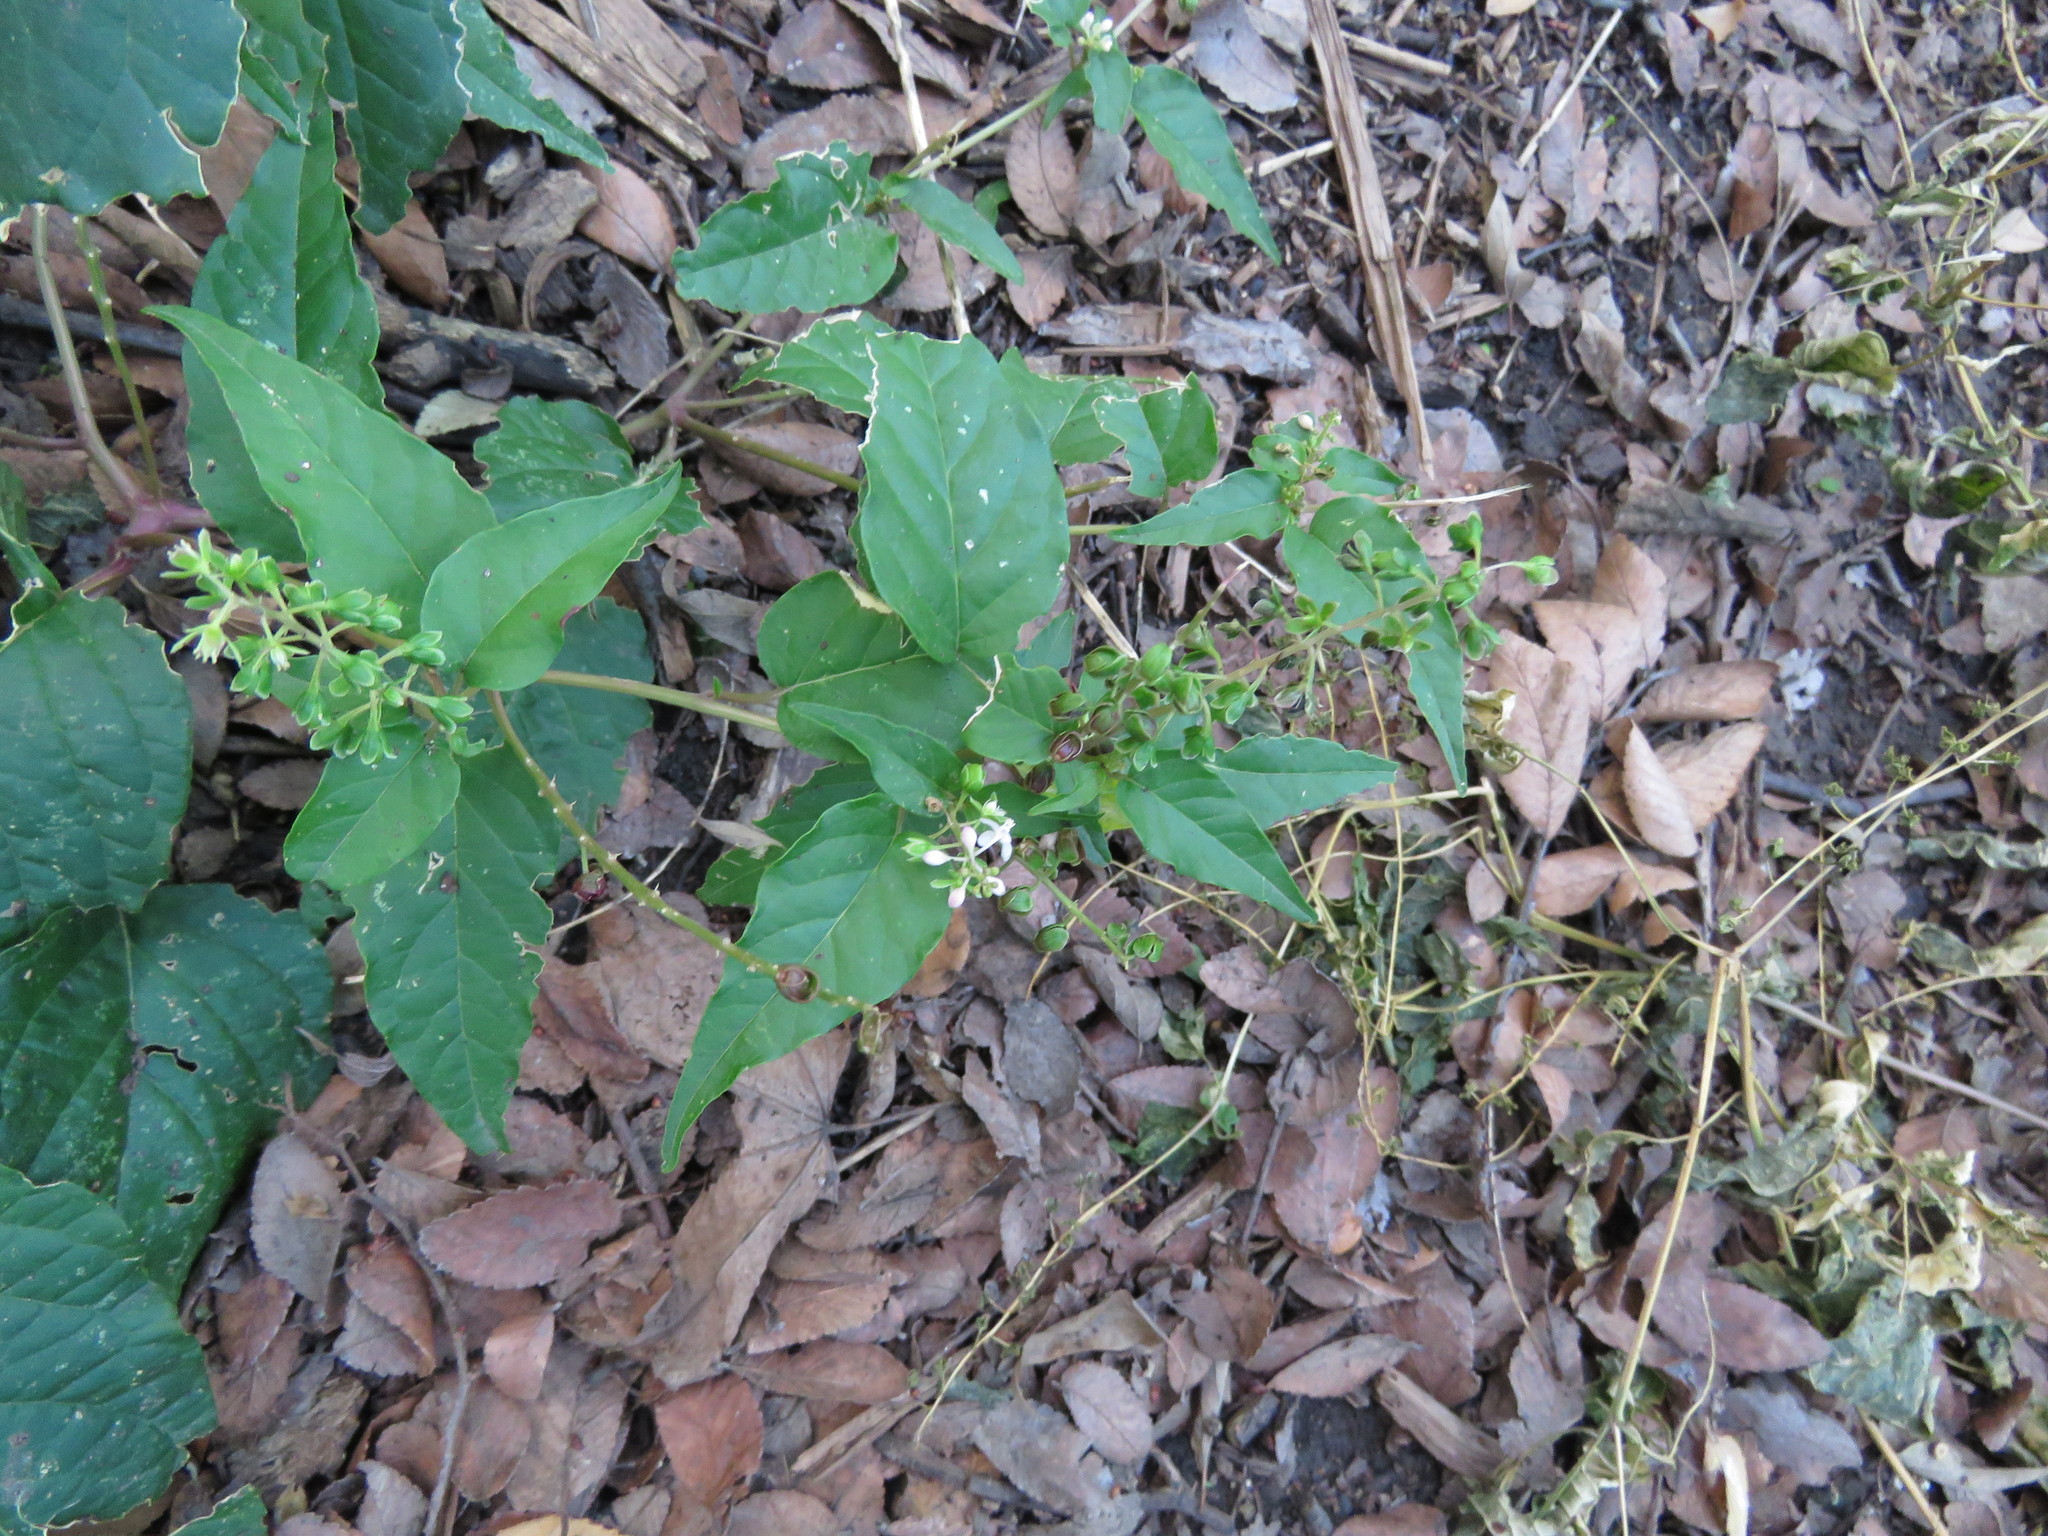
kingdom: Plantae
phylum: Tracheophyta
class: Magnoliopsida
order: Caryophyllales
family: Phytolaccaceae
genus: Rivina
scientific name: Rivina humilis
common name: Rougeplant
